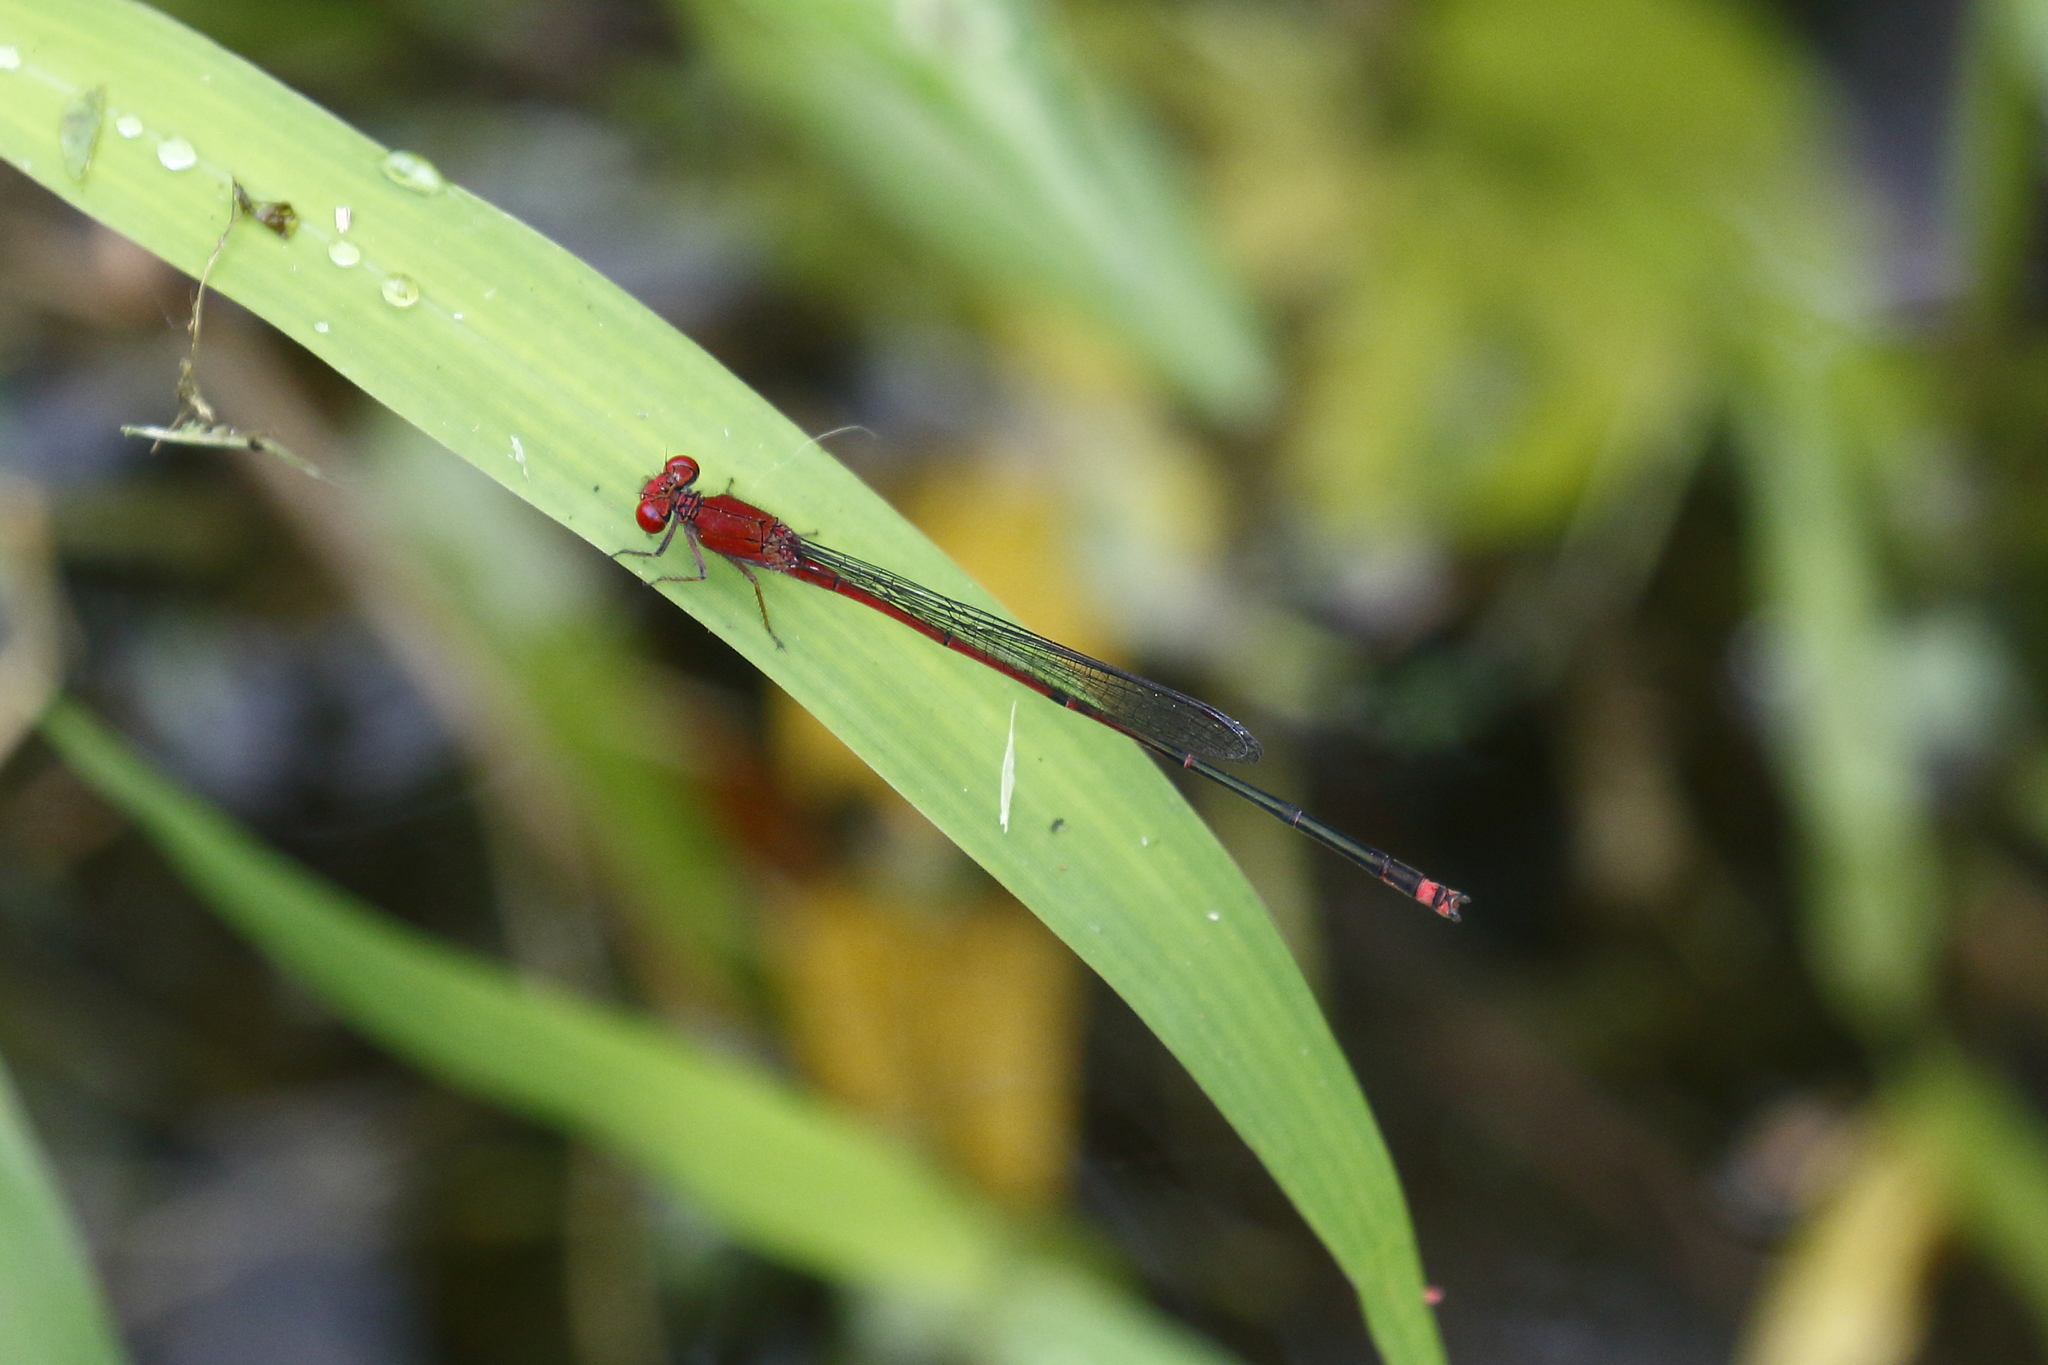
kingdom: Animalia
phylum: Arthropoda
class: Insecta
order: Odonata
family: Coenagrionidae
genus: Pseudagrion
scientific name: Pseudagrion pilidorsum
